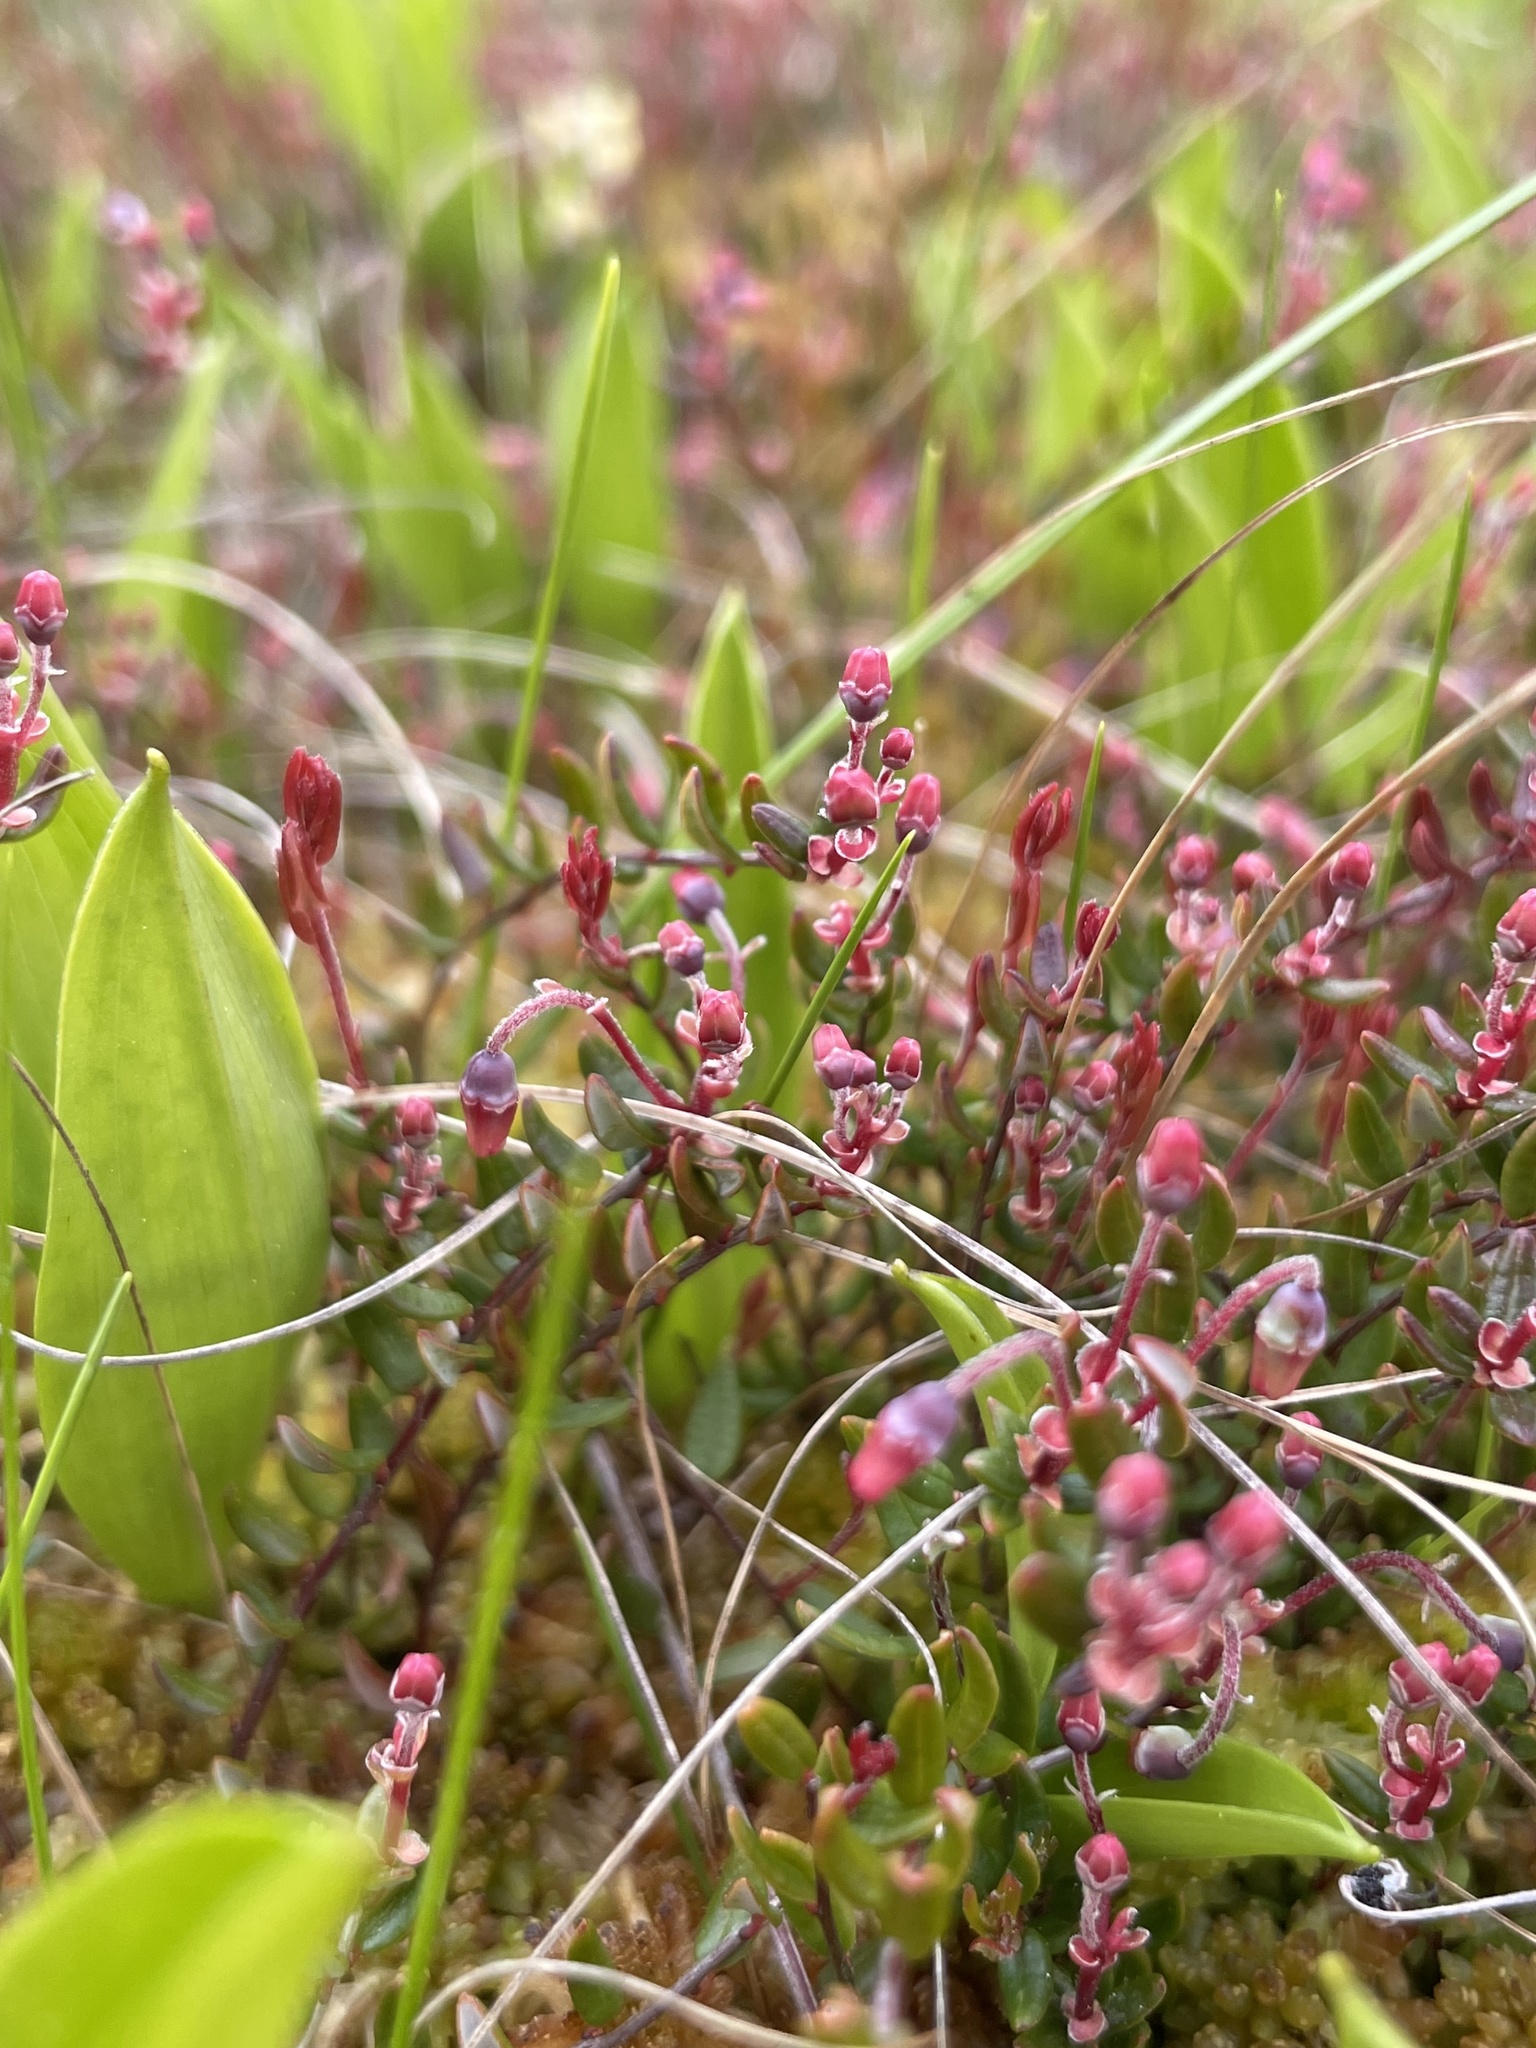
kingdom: Plantae
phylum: Tracheophyta
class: Magnoliopsida
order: Ericales
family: Ericaceae
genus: Vaccinium
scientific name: Vaccinium oxycoccos
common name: Cranberry
